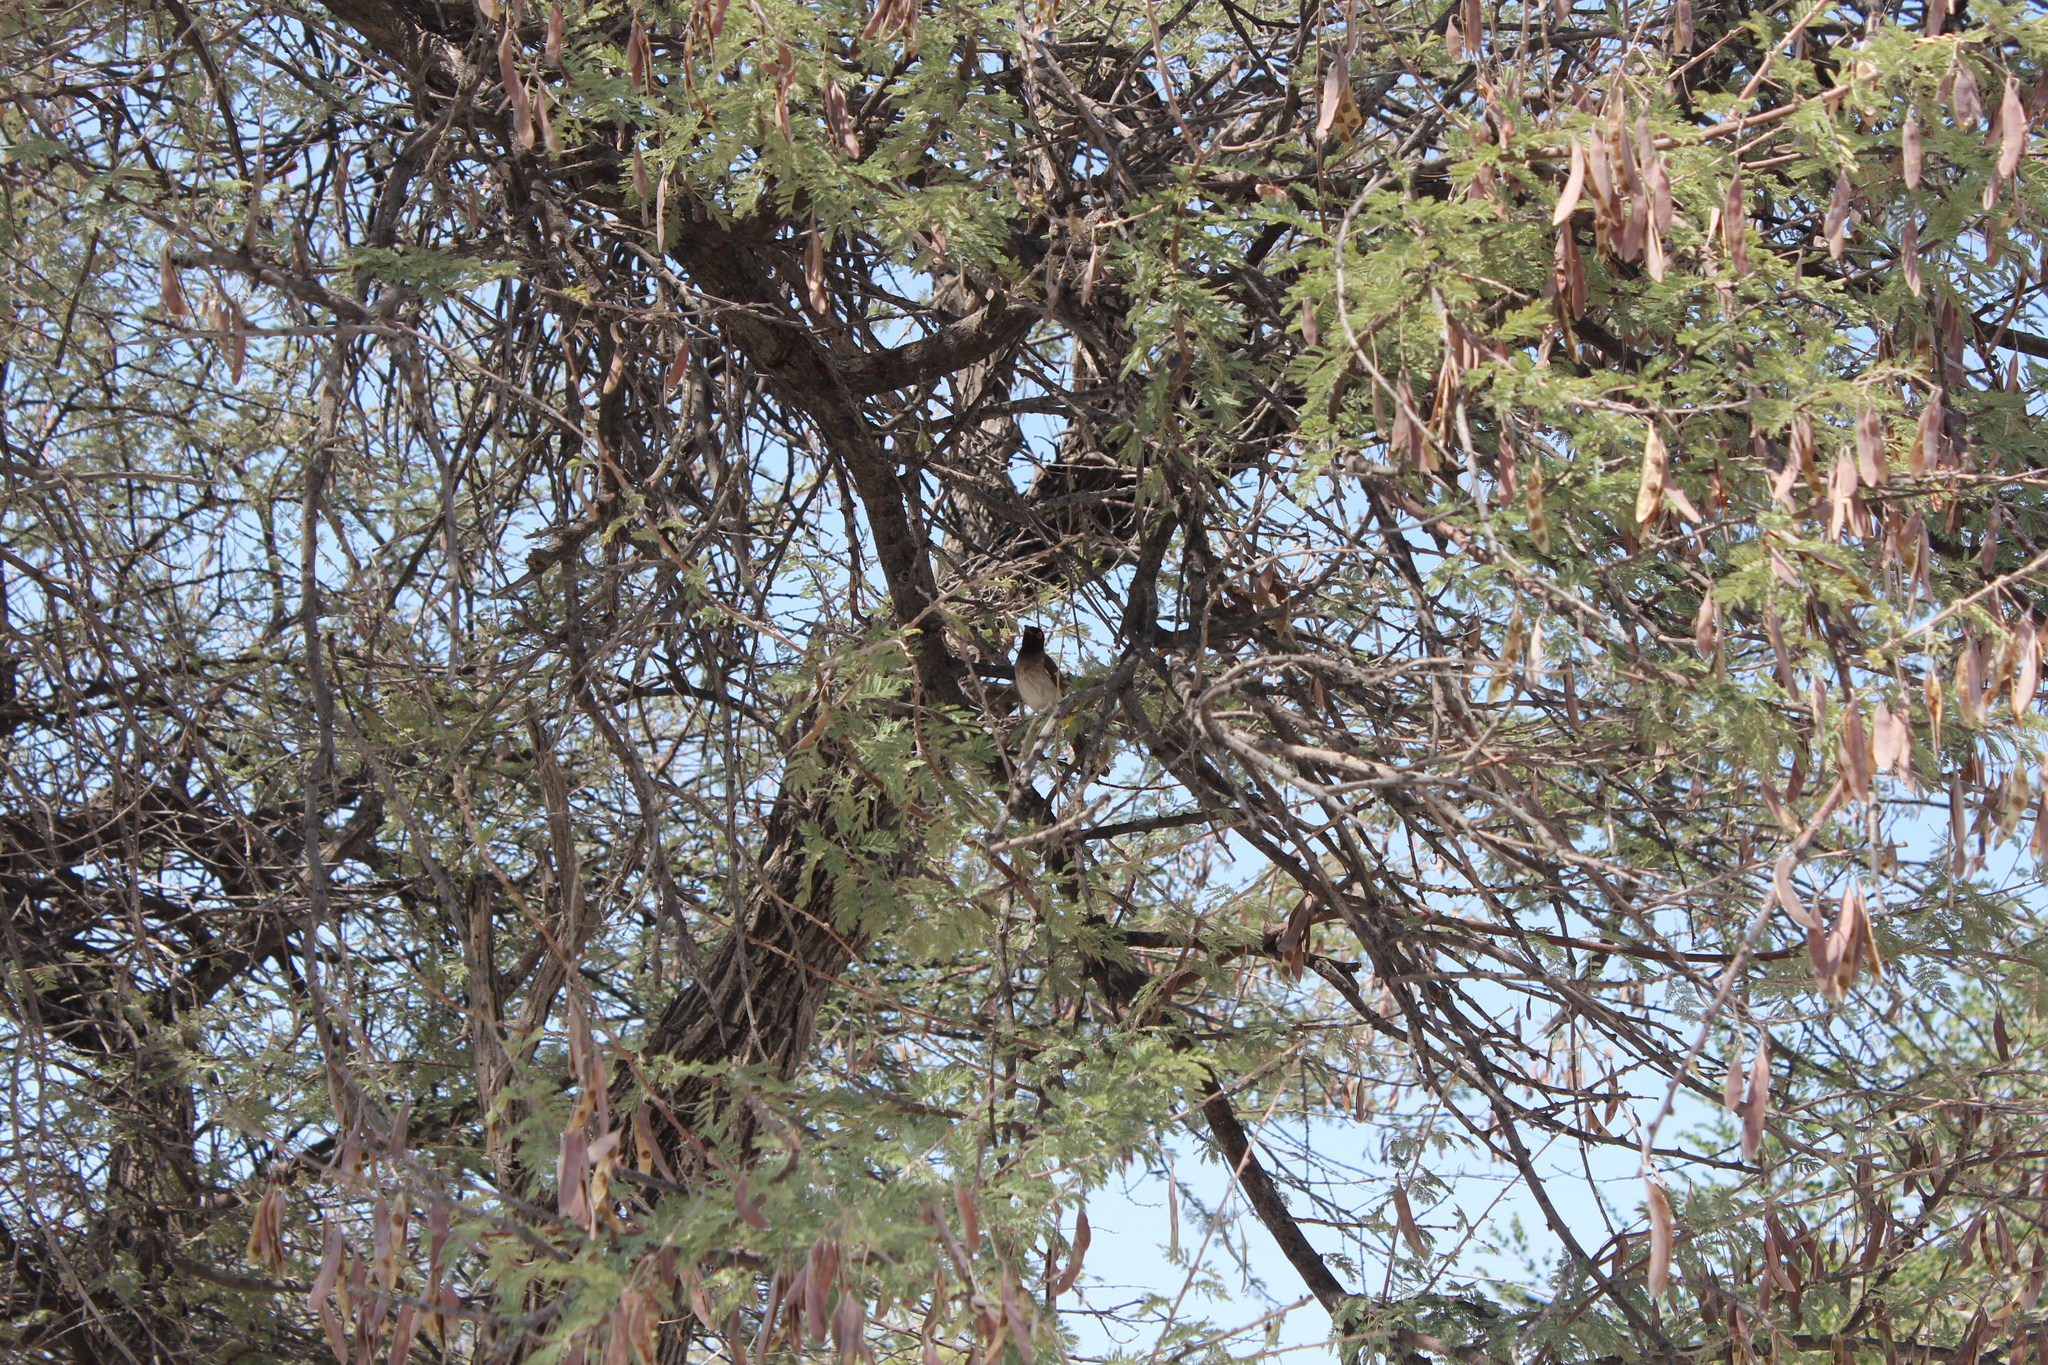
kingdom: Animalia
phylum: Chordata
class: Aves
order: Passeriformes
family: Pycnonotidae
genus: Pycnonotus
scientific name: Pycnonotus nigricans
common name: African red-eyed bulbul
